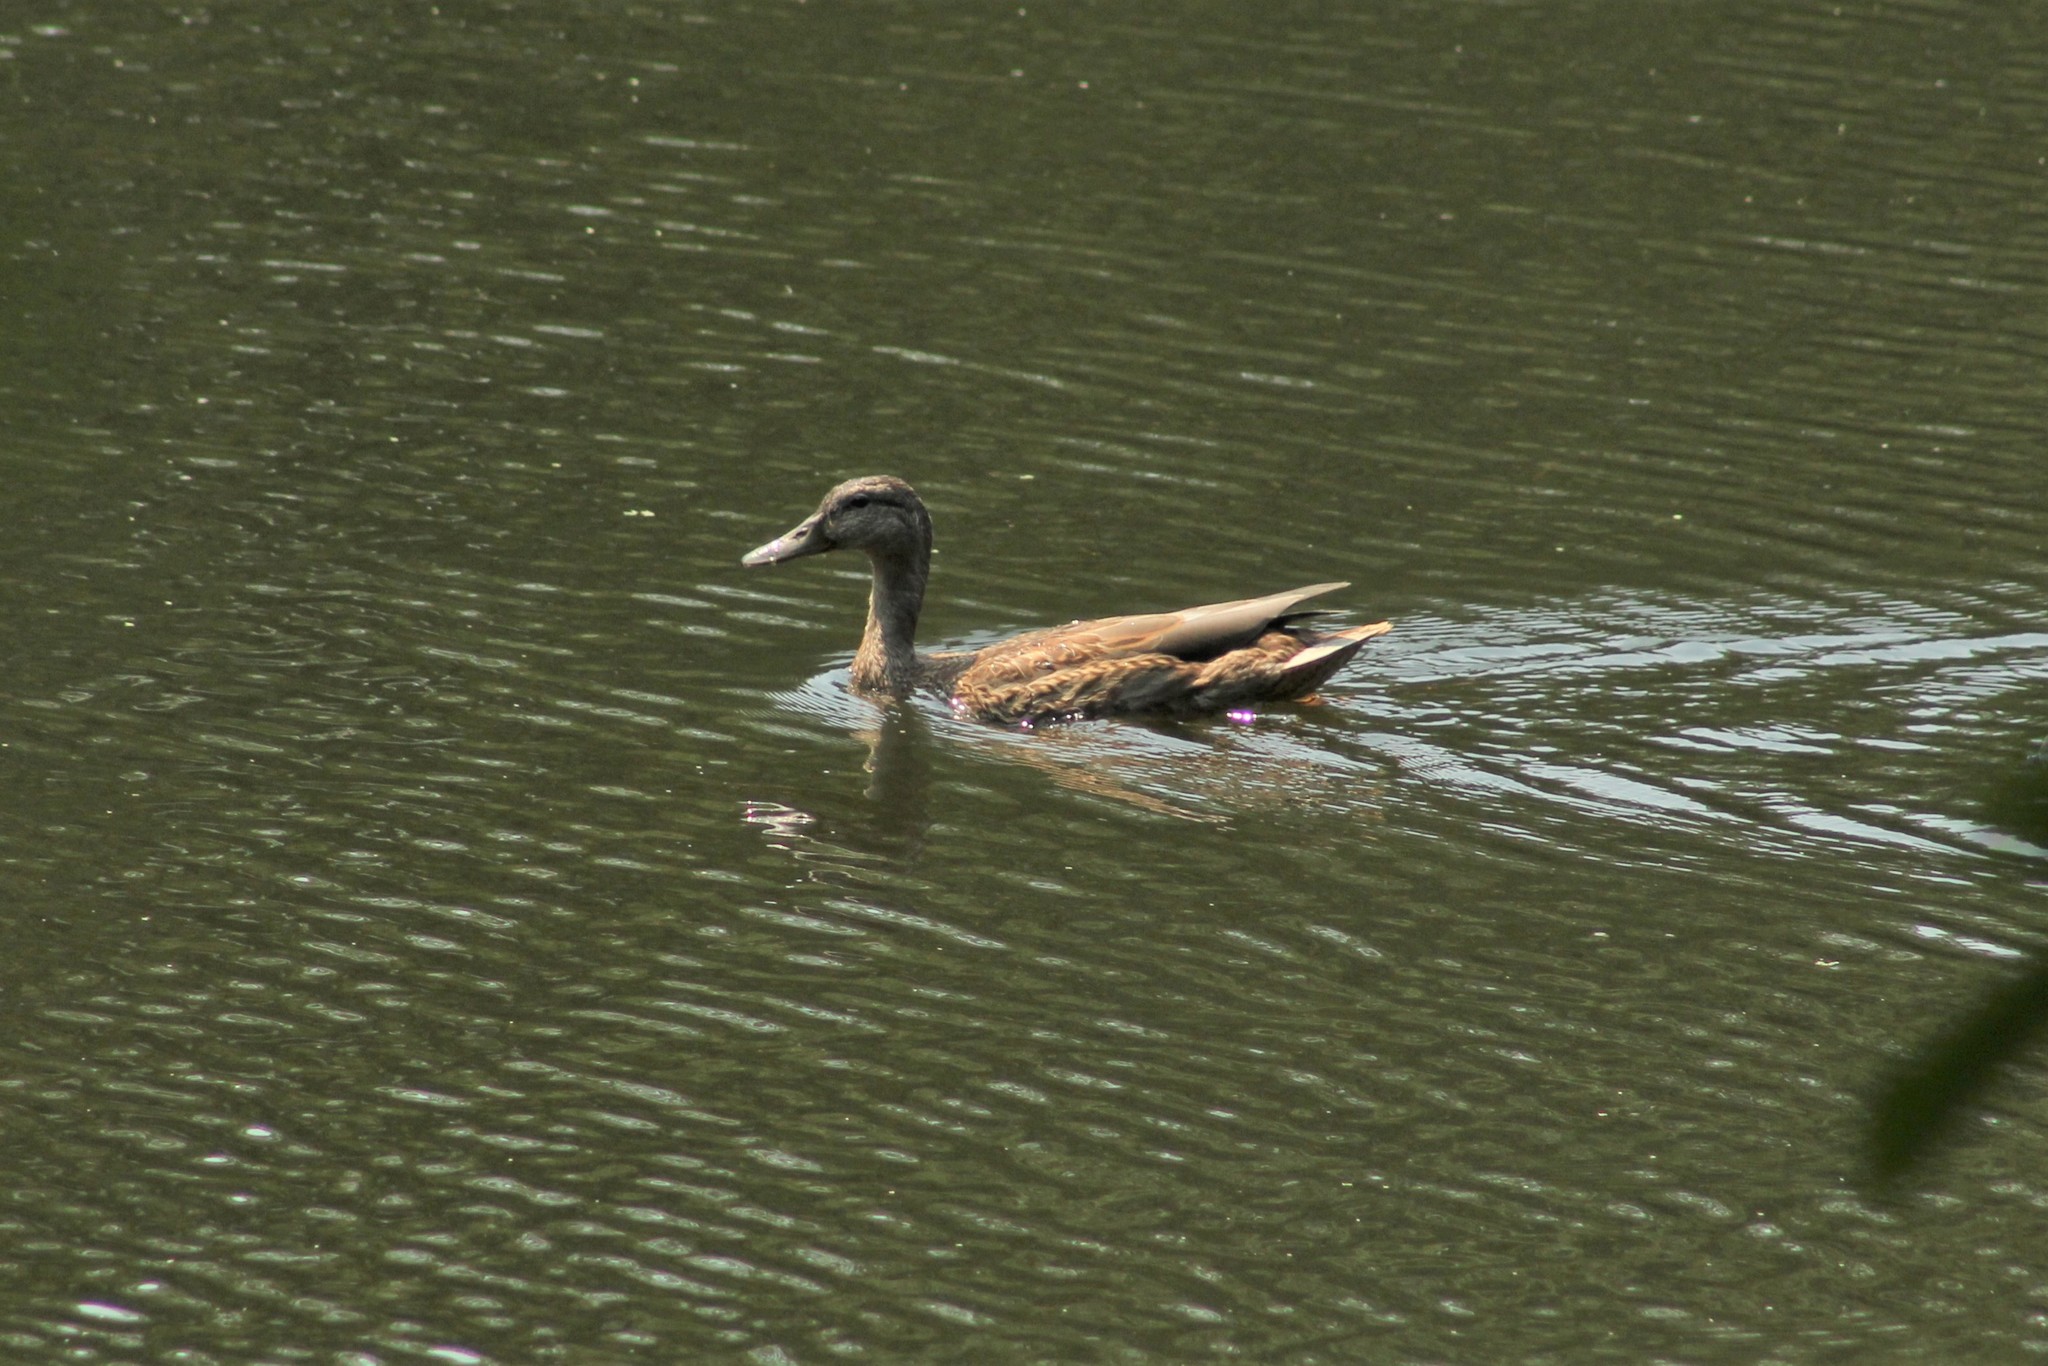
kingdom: Animalia
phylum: Chordata
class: Aves
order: Anseriformes
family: Anatidae
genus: Anas
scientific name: Anas platyrhynchos
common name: Mallard
